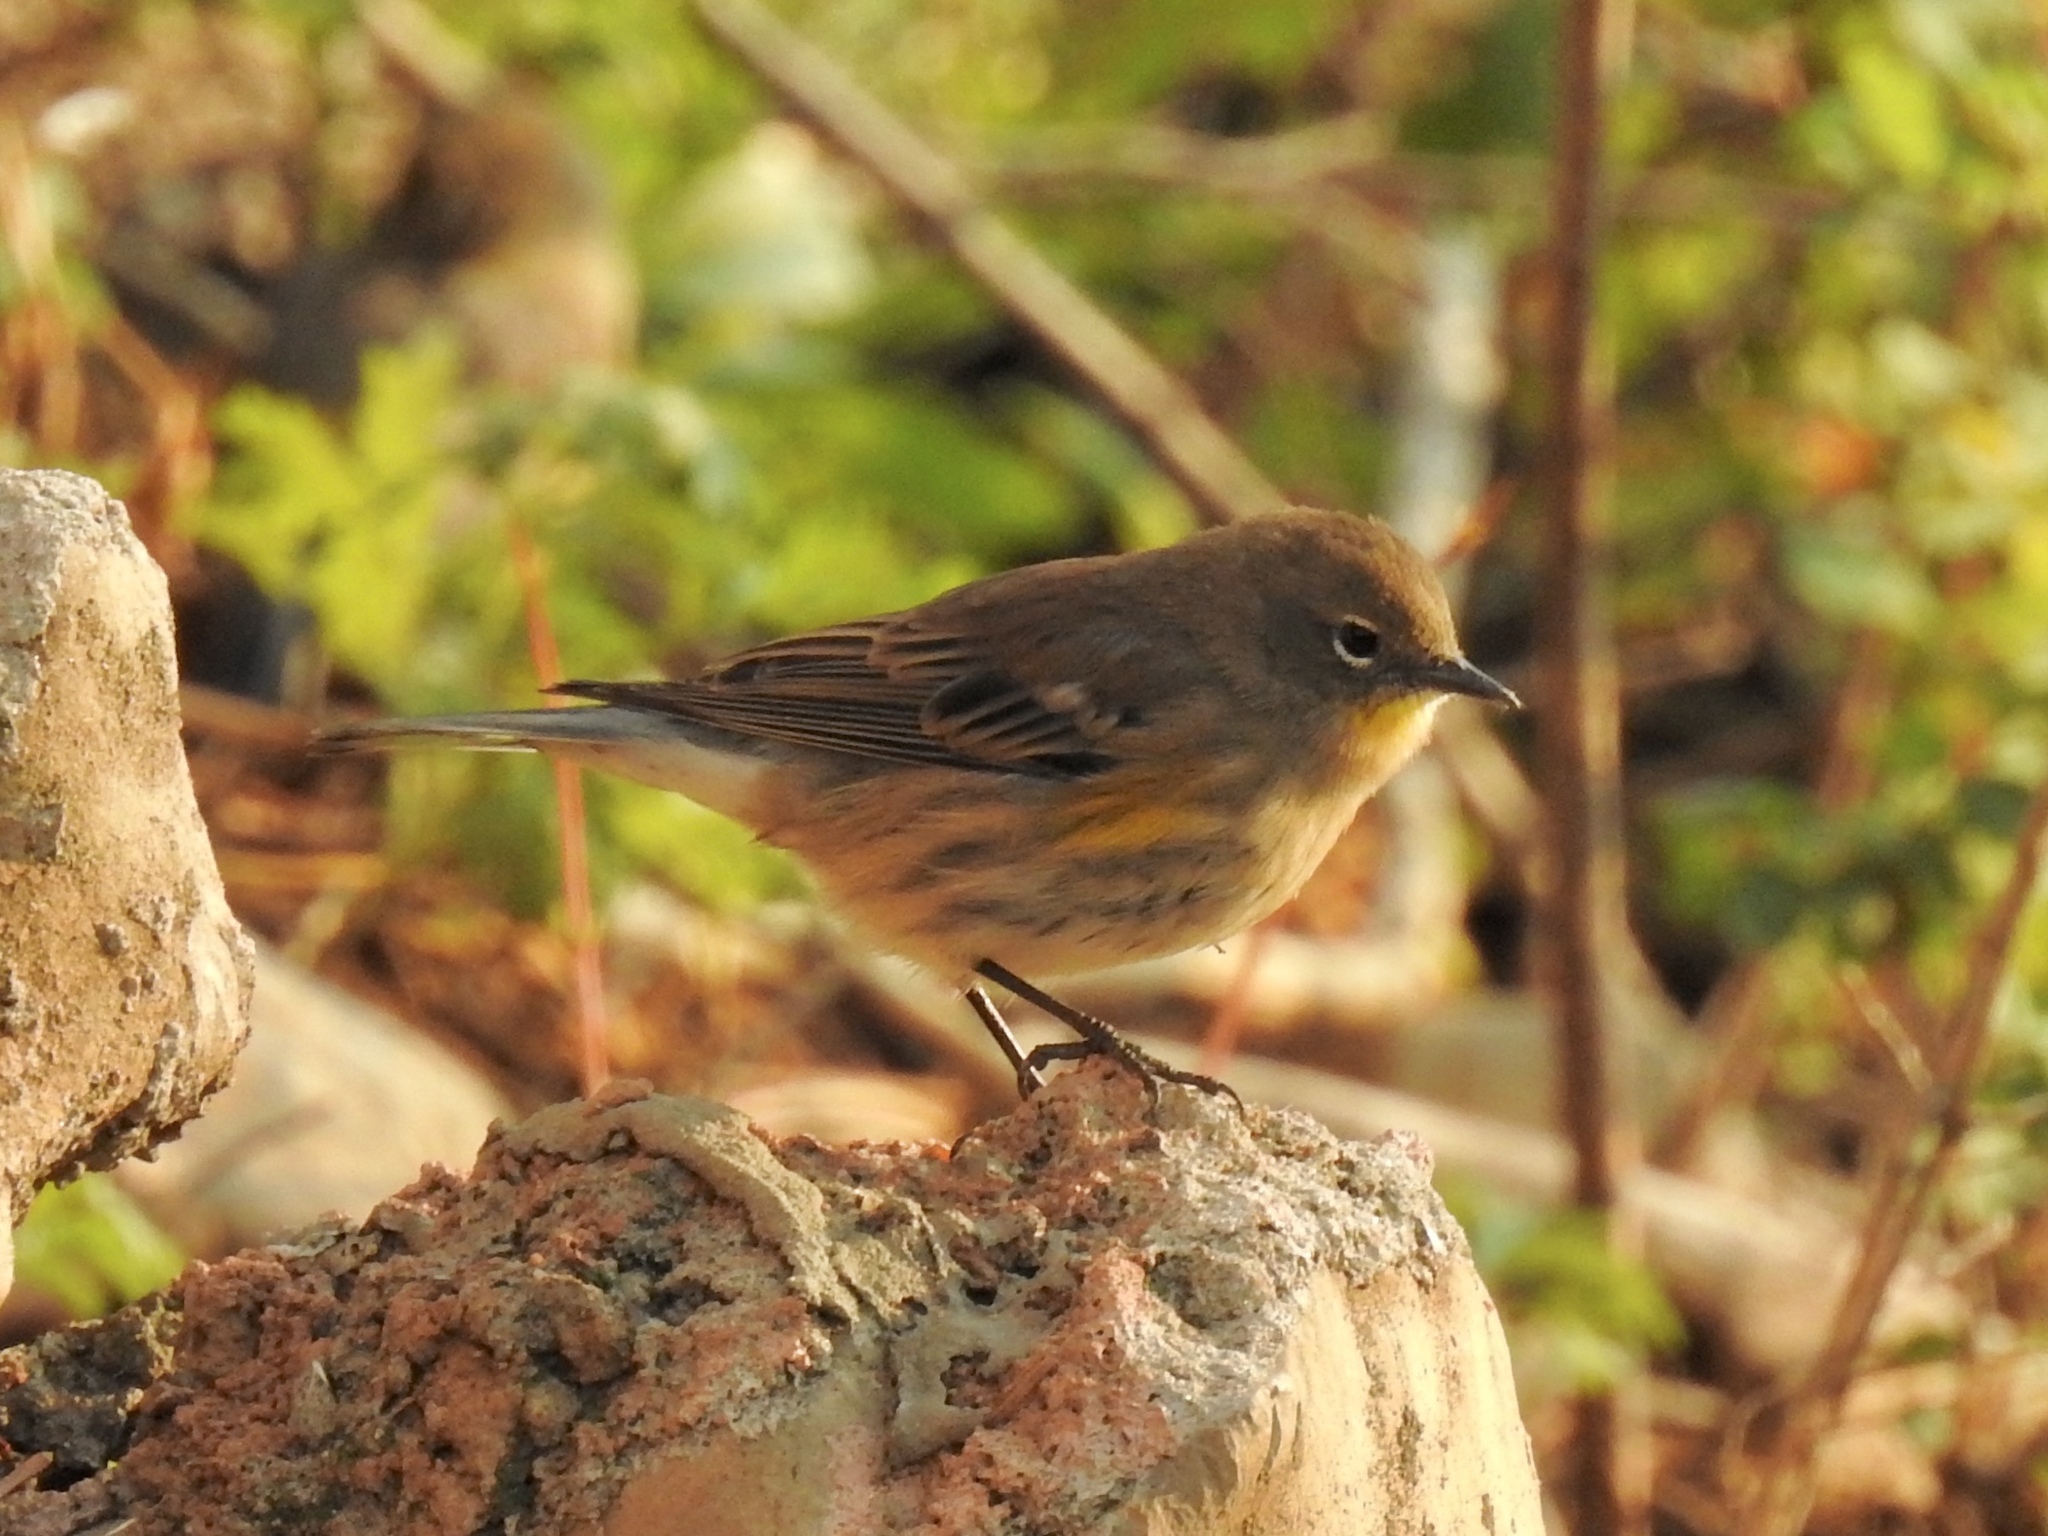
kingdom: Animalia
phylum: Chordata
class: Aves
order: Passeriformes
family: Parulidae
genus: Setophaga
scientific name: Setophaga coronata
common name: Myrtle warbler
